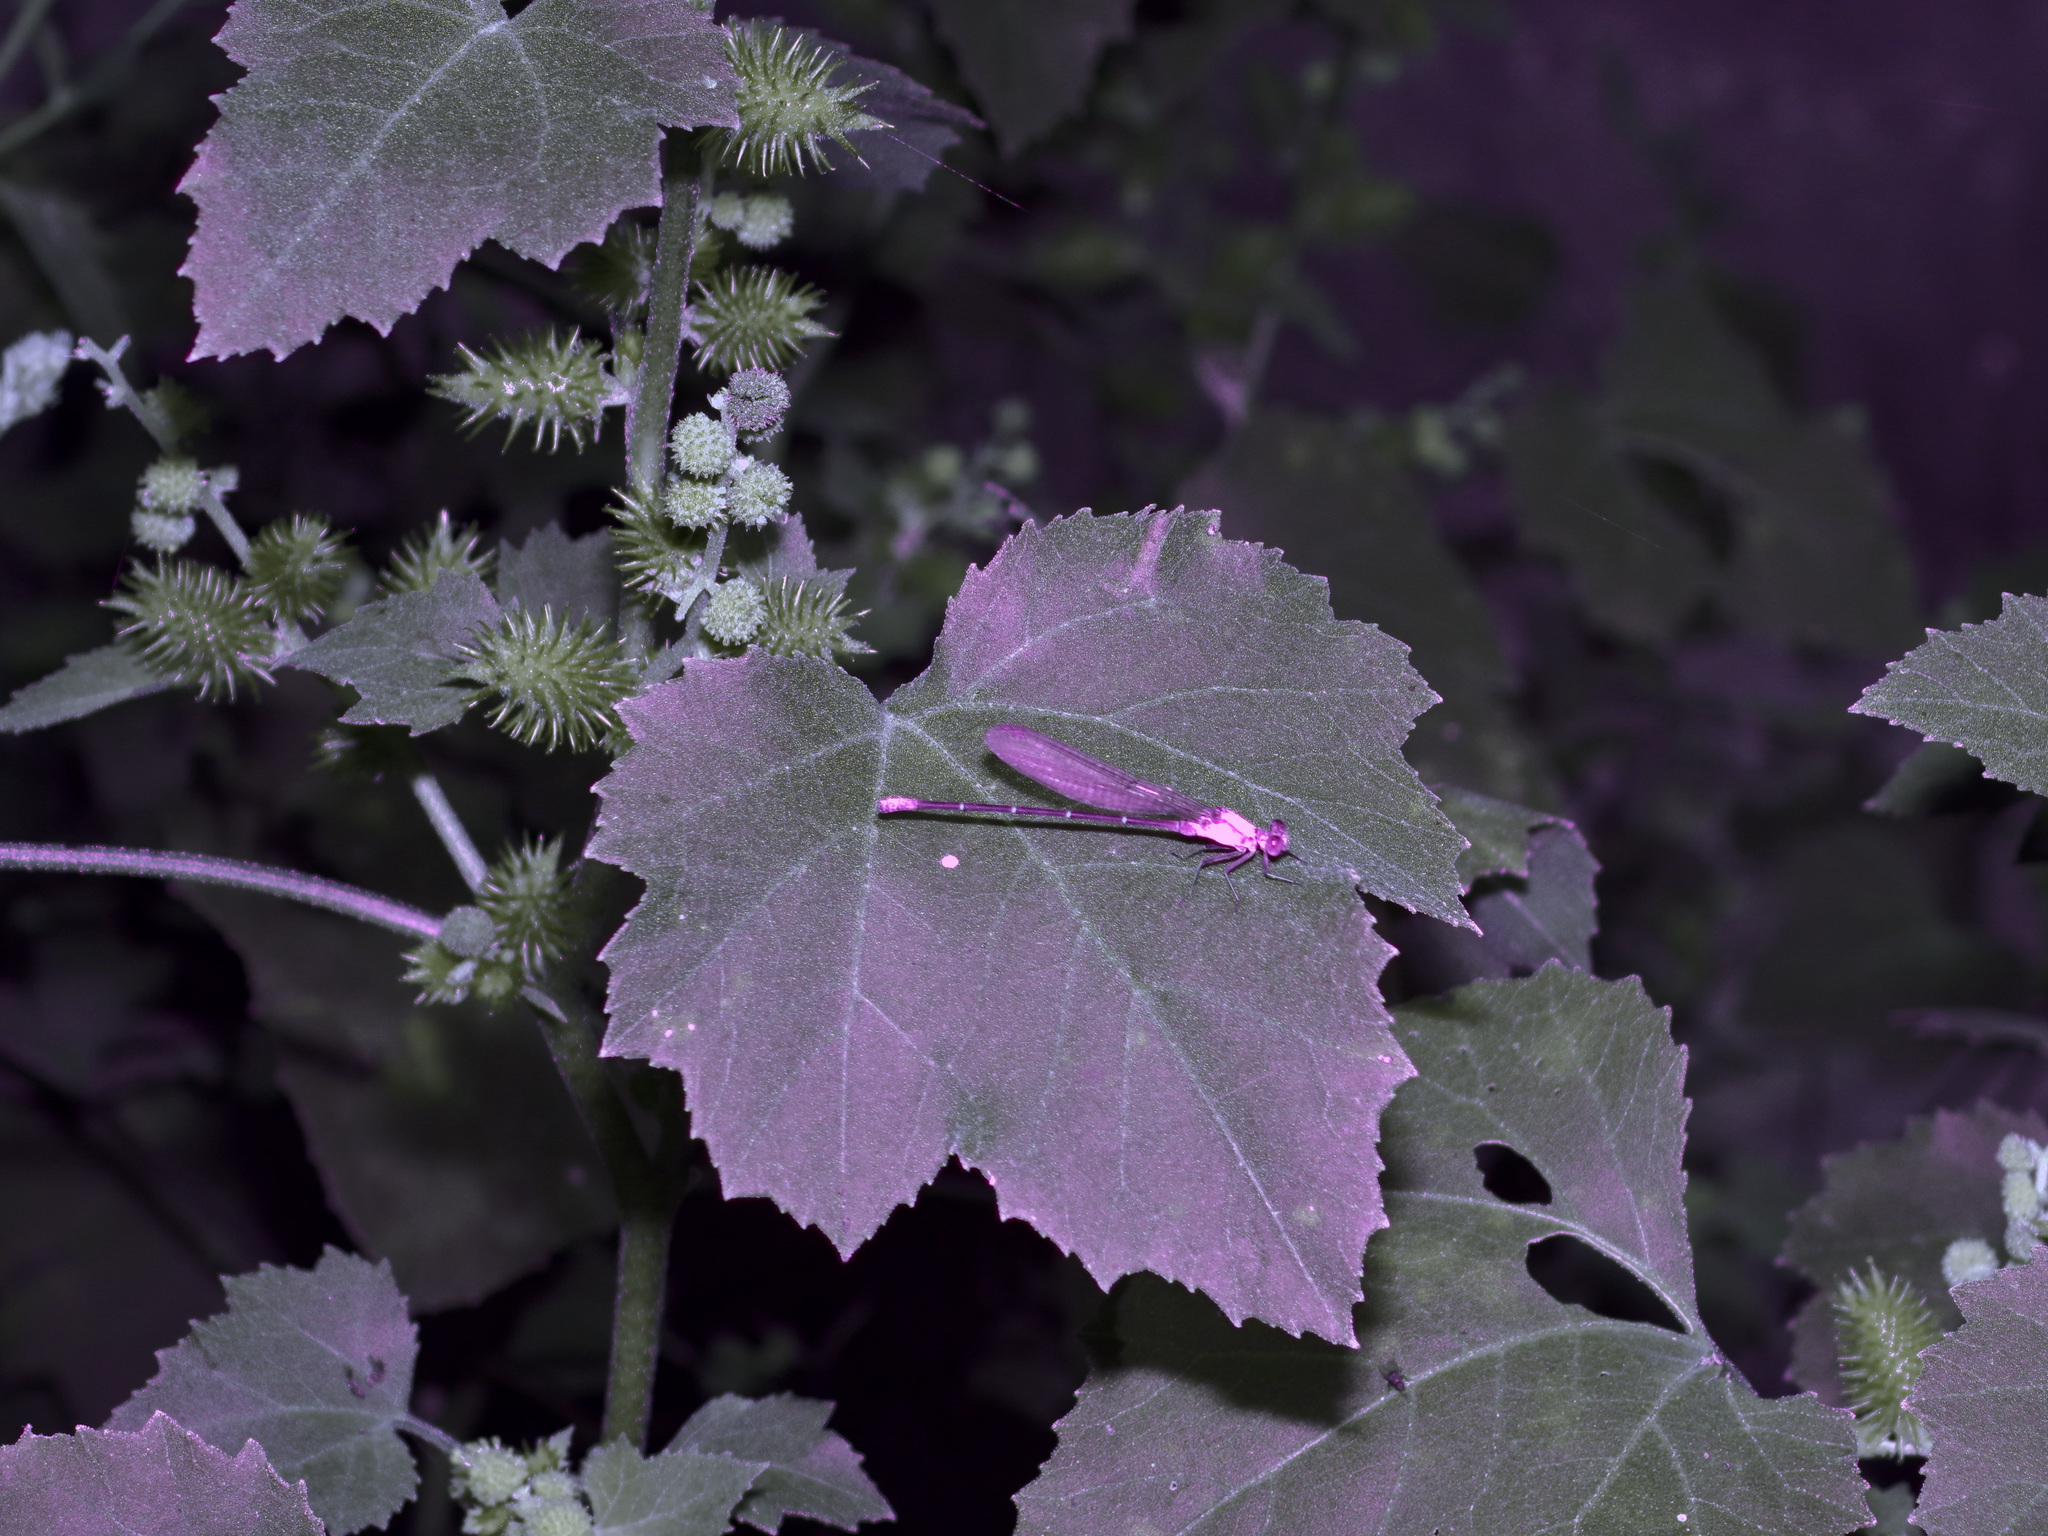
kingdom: Animalia
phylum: Arthropoda
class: Insecta
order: Odonata
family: Coenagrionidae
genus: Argia
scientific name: Argia moesta
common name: Powdered dancer
